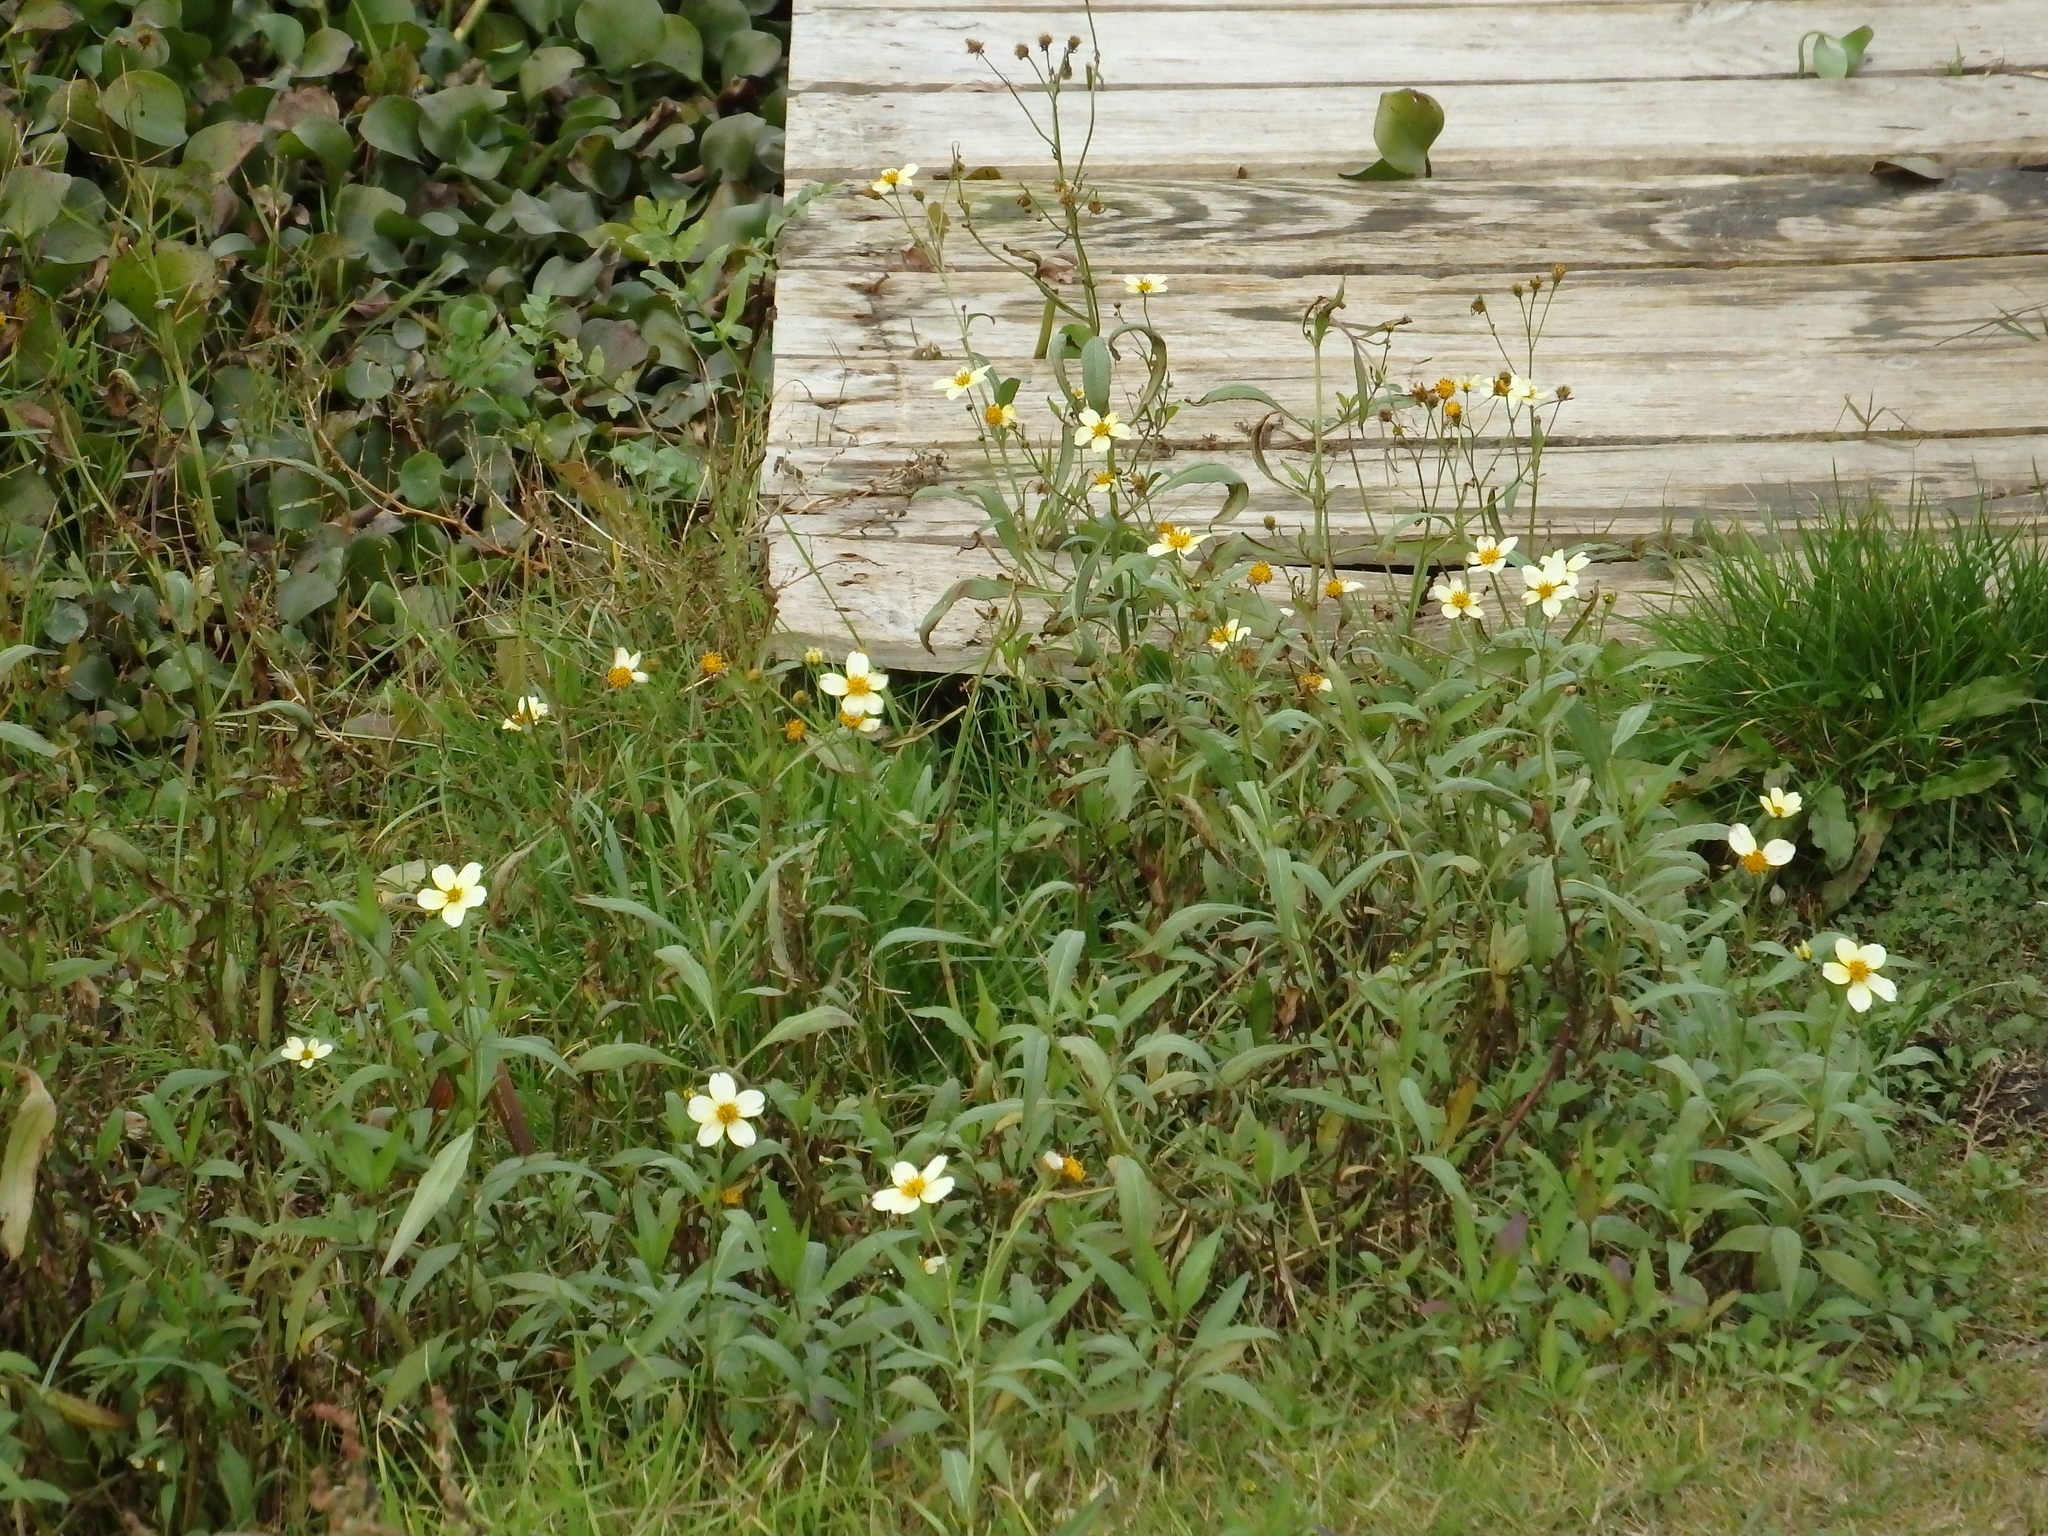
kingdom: Plantae
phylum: Tracheophyta
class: Magnoliopsida
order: Asterales
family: Asteraceae
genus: Bidens
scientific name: Bidens aurea
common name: Arizona beggar-ticks
